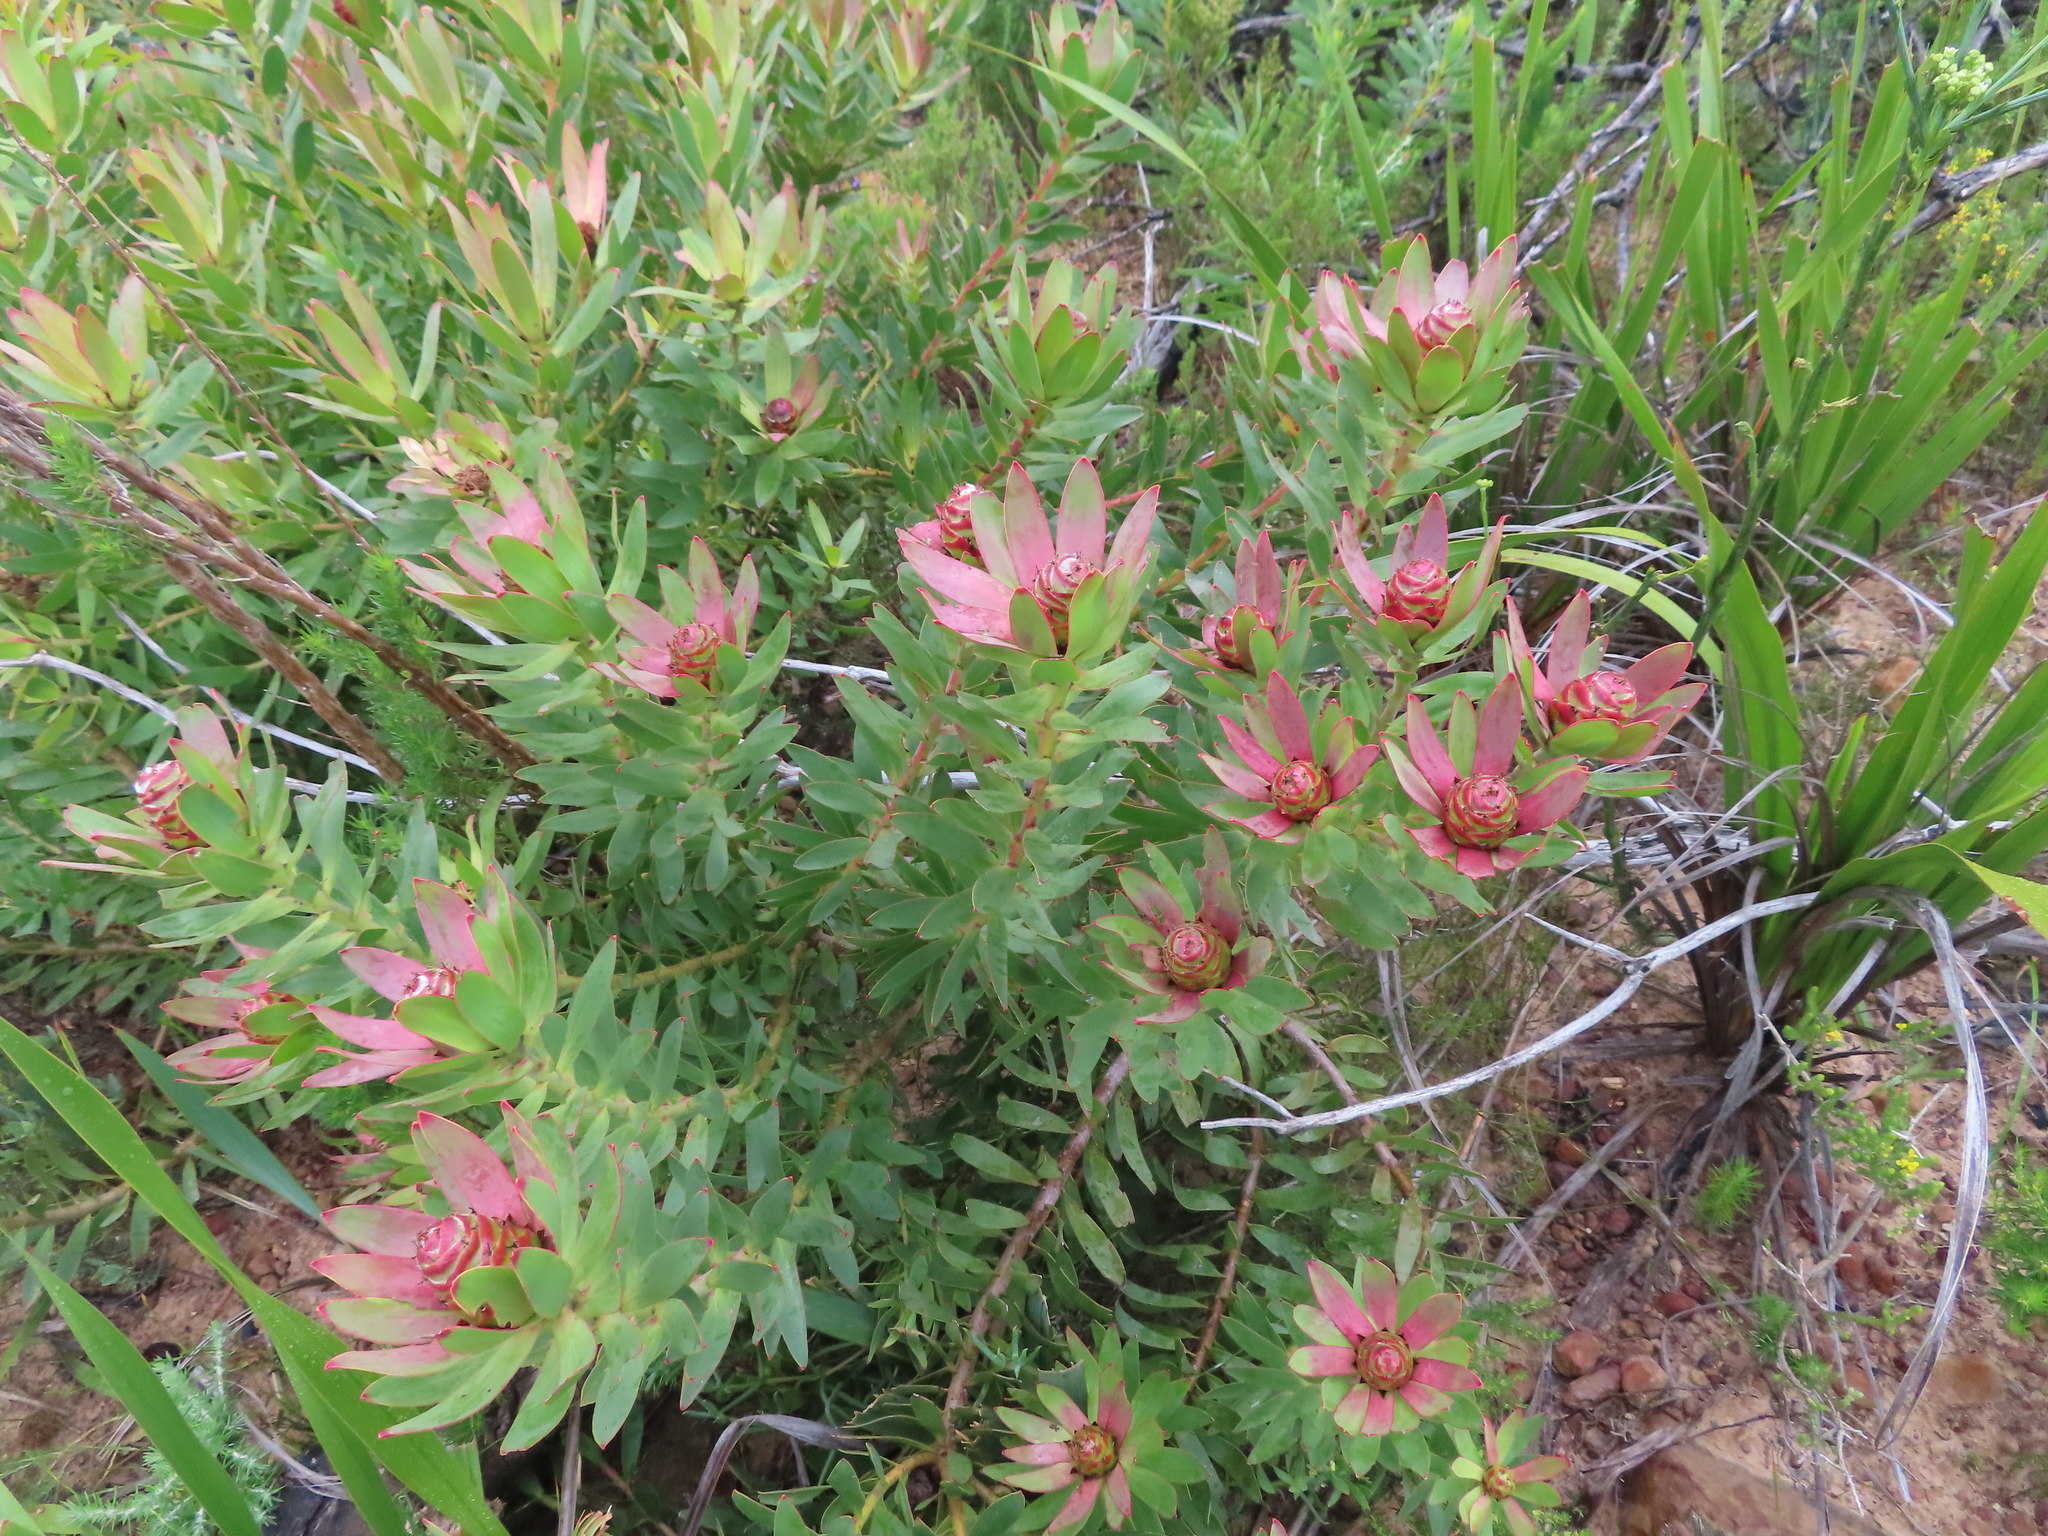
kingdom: Plantae
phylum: Tracheophyta
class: Magnoliopsida
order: Proteales
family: Proteaceae
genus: Leucadendron
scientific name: Leucadendron sessile
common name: Western sunbush
